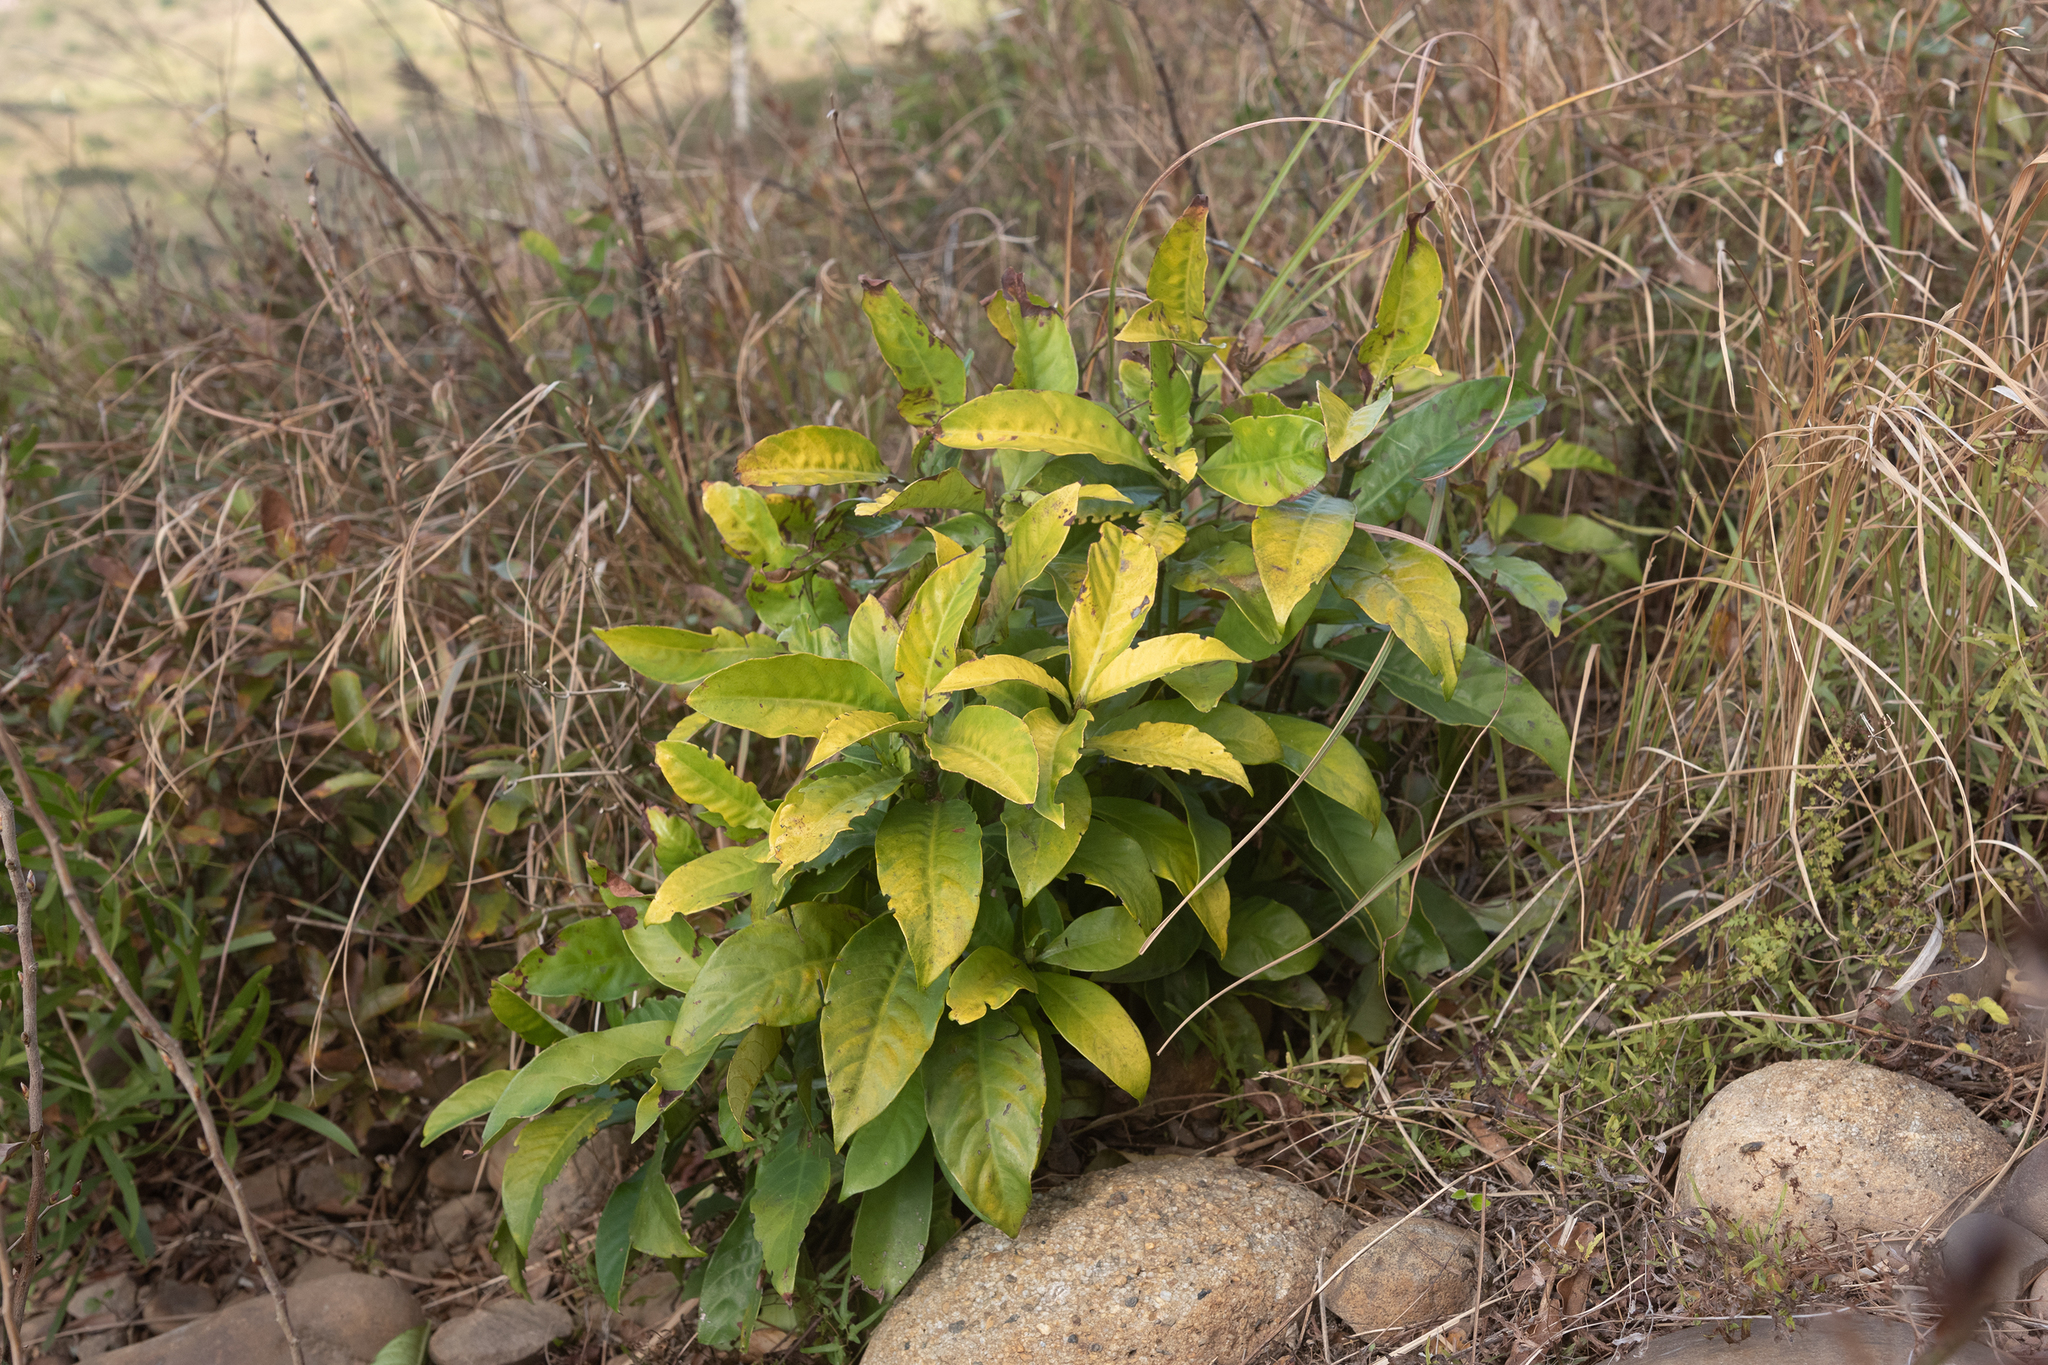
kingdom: Plantae
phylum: Tracheophyta
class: Magnoliopsida
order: Gentianales
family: Rubiaceae
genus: Psychotria
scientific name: Psychotria asiatica
